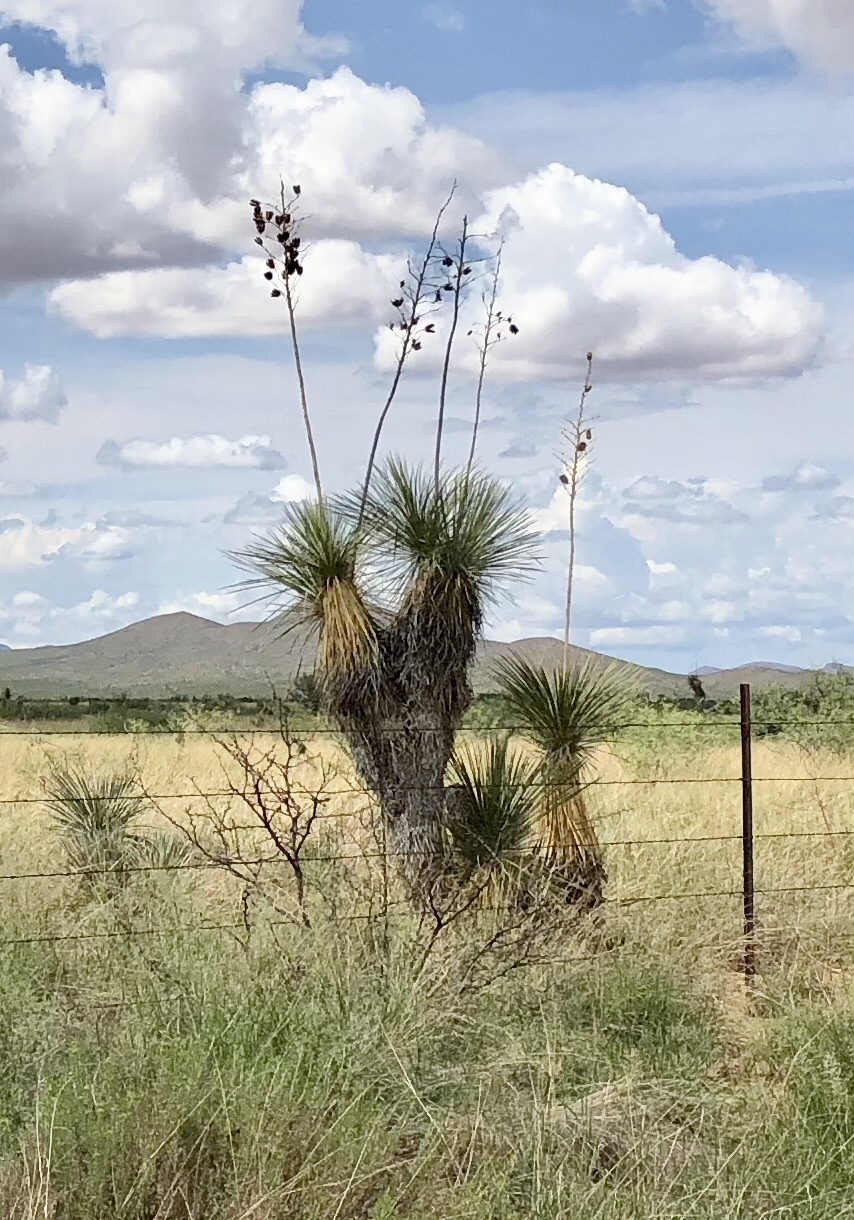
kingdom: Plantae
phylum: Tracheophyta
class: Liliopsida
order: Asparagales
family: Asparagaceae
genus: Yucca
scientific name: Yucca elata
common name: Palmella
